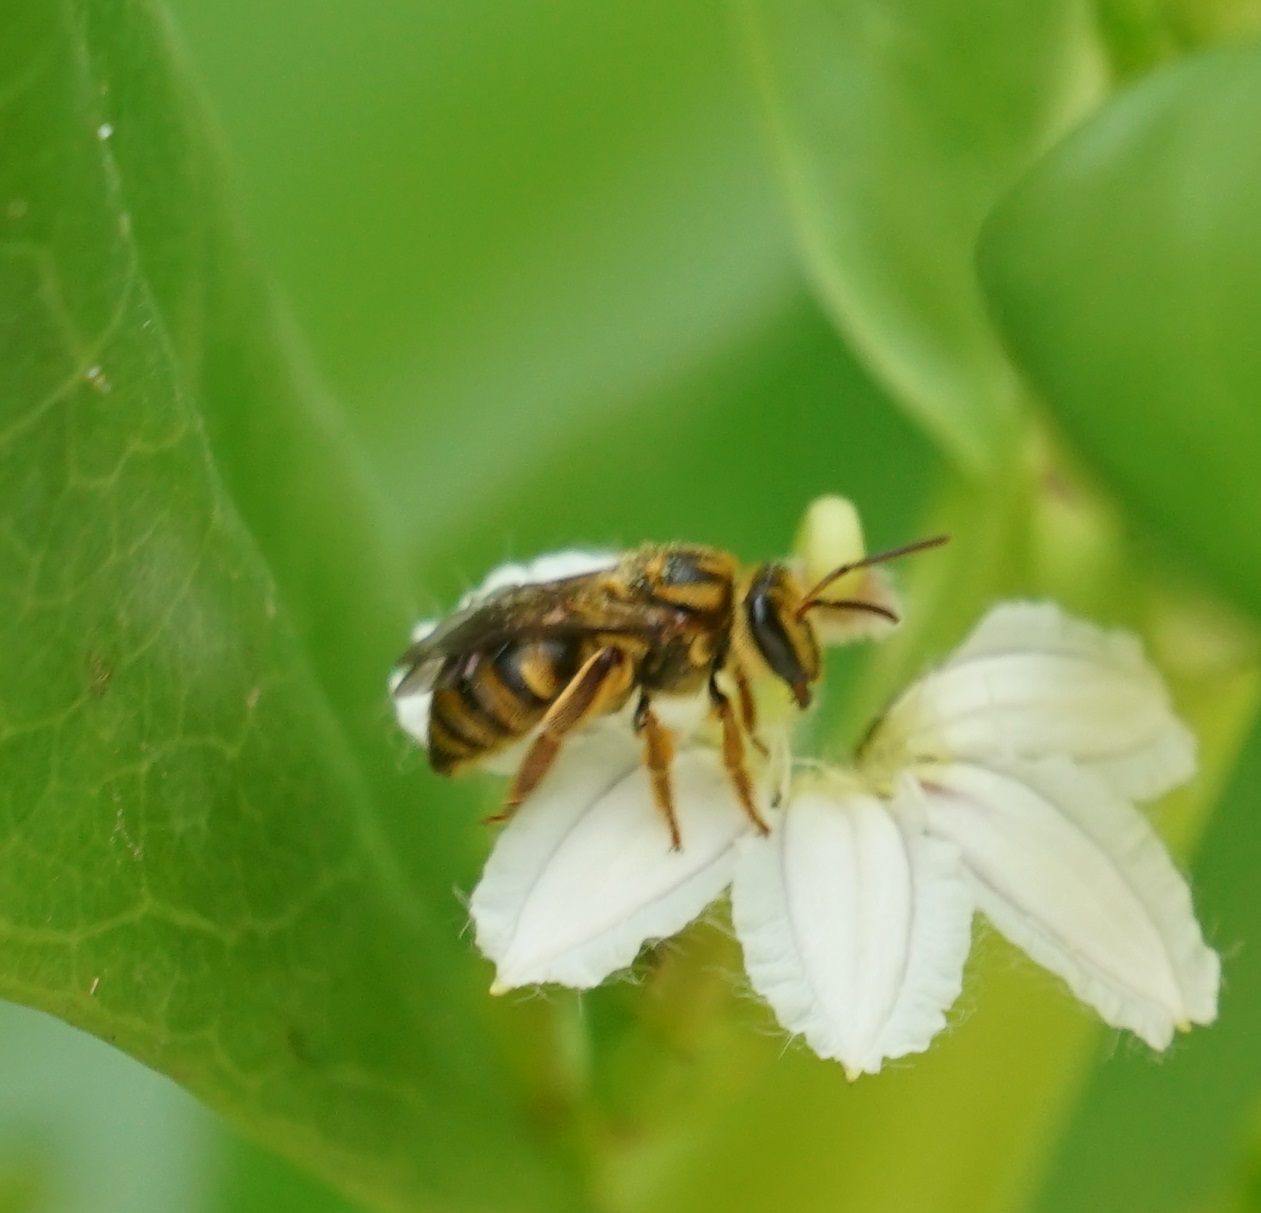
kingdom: Animalia
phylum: Arthropoda
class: Insecta
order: Hymenoptera
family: Halictidae
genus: Mellitidia
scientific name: Mellitidia tomentifera
